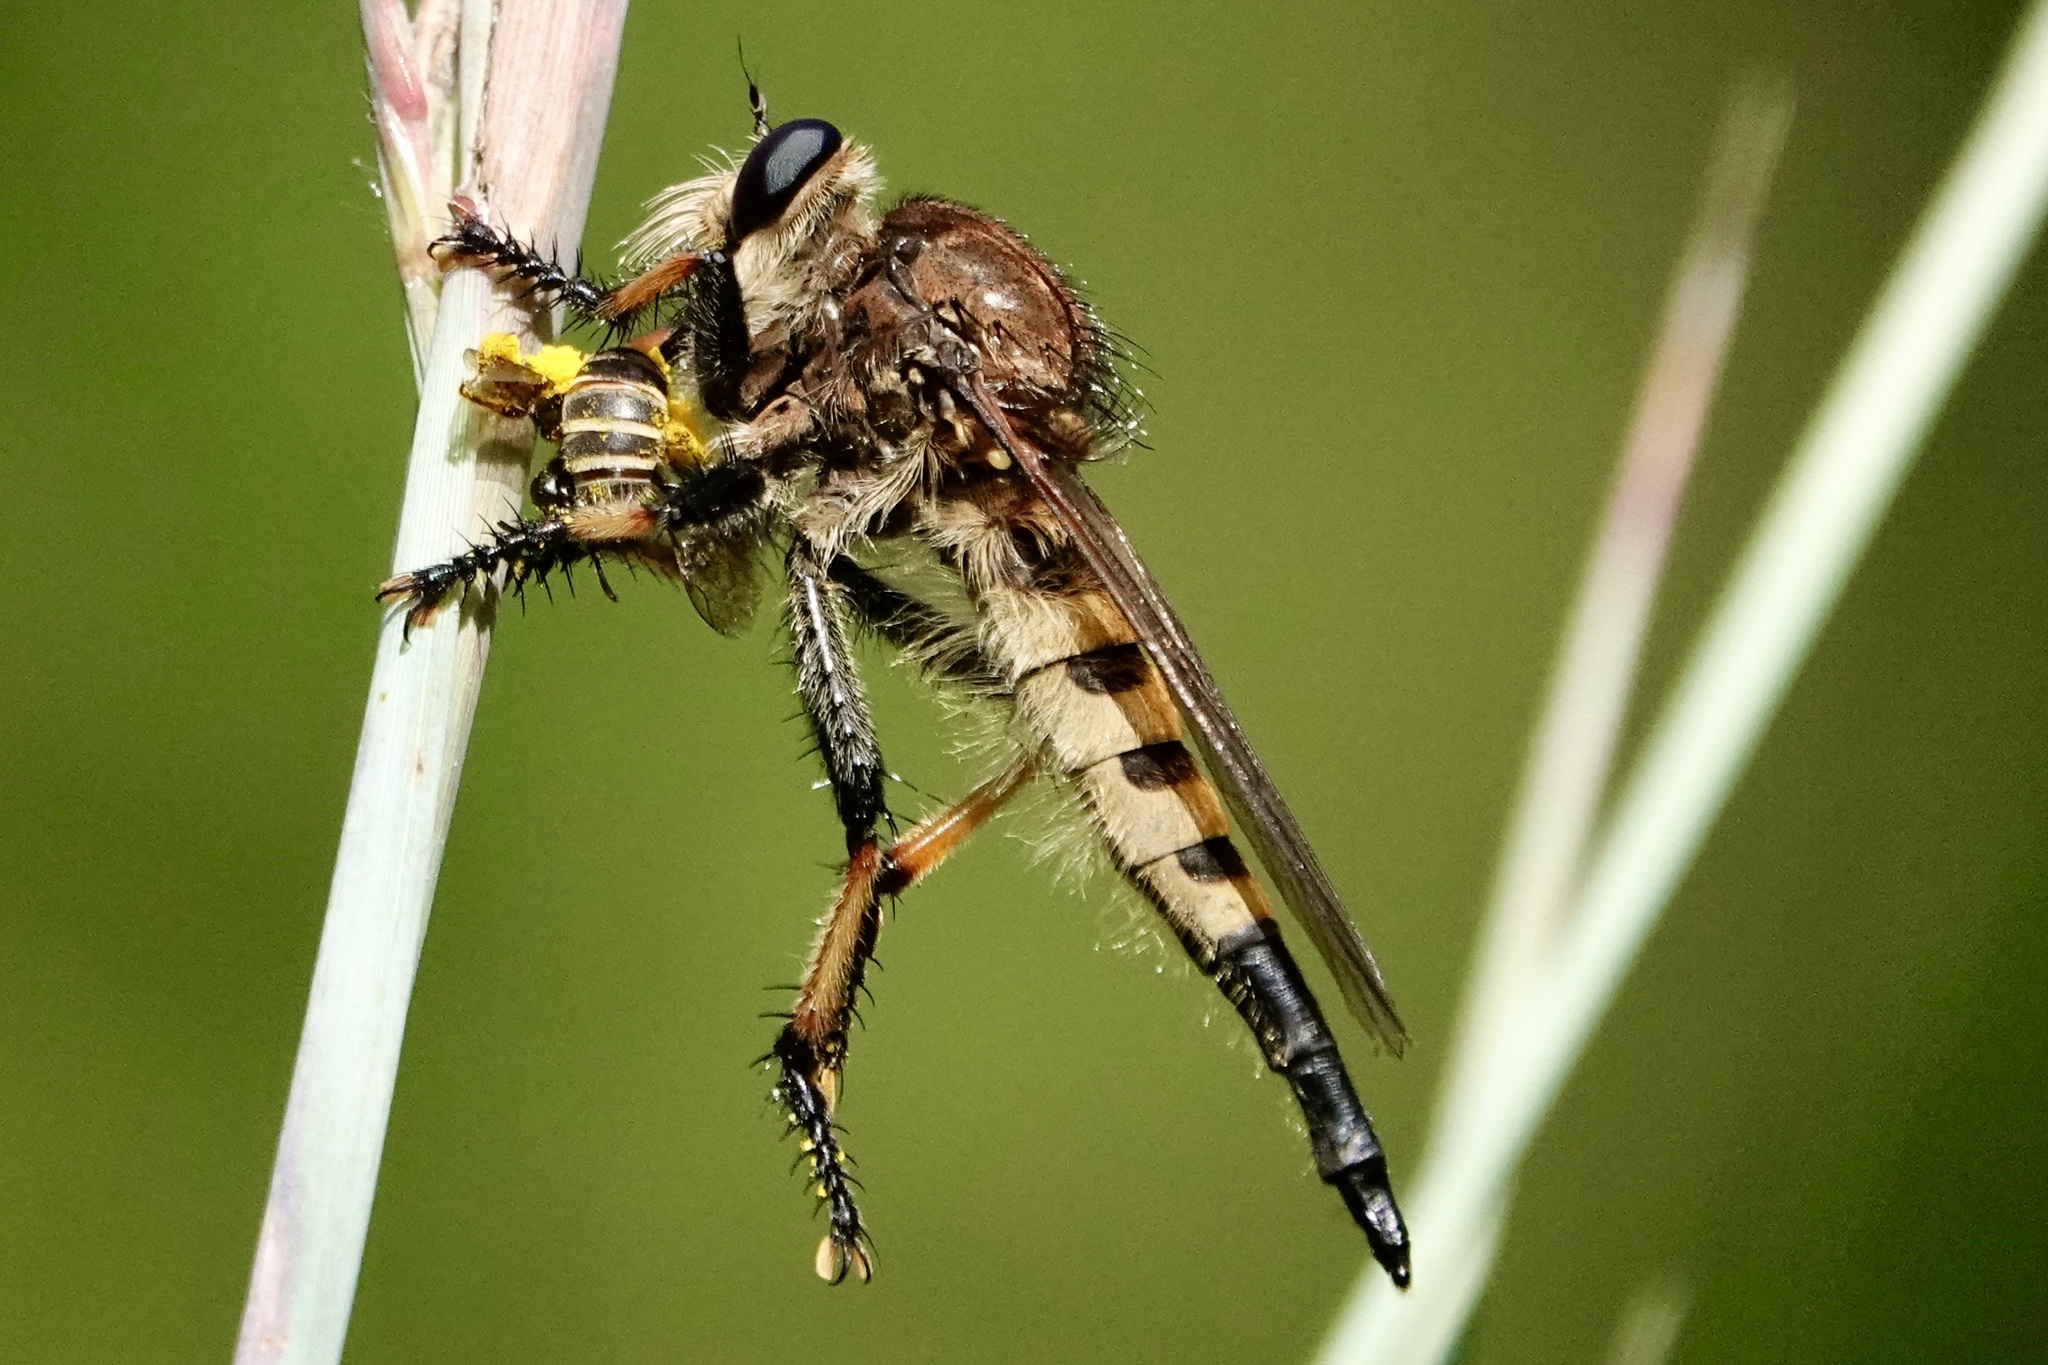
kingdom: Animalia
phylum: Arthropoda
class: Insecta
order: Diptera
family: Asilidae
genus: Promachus
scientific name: Promachus rufipes
